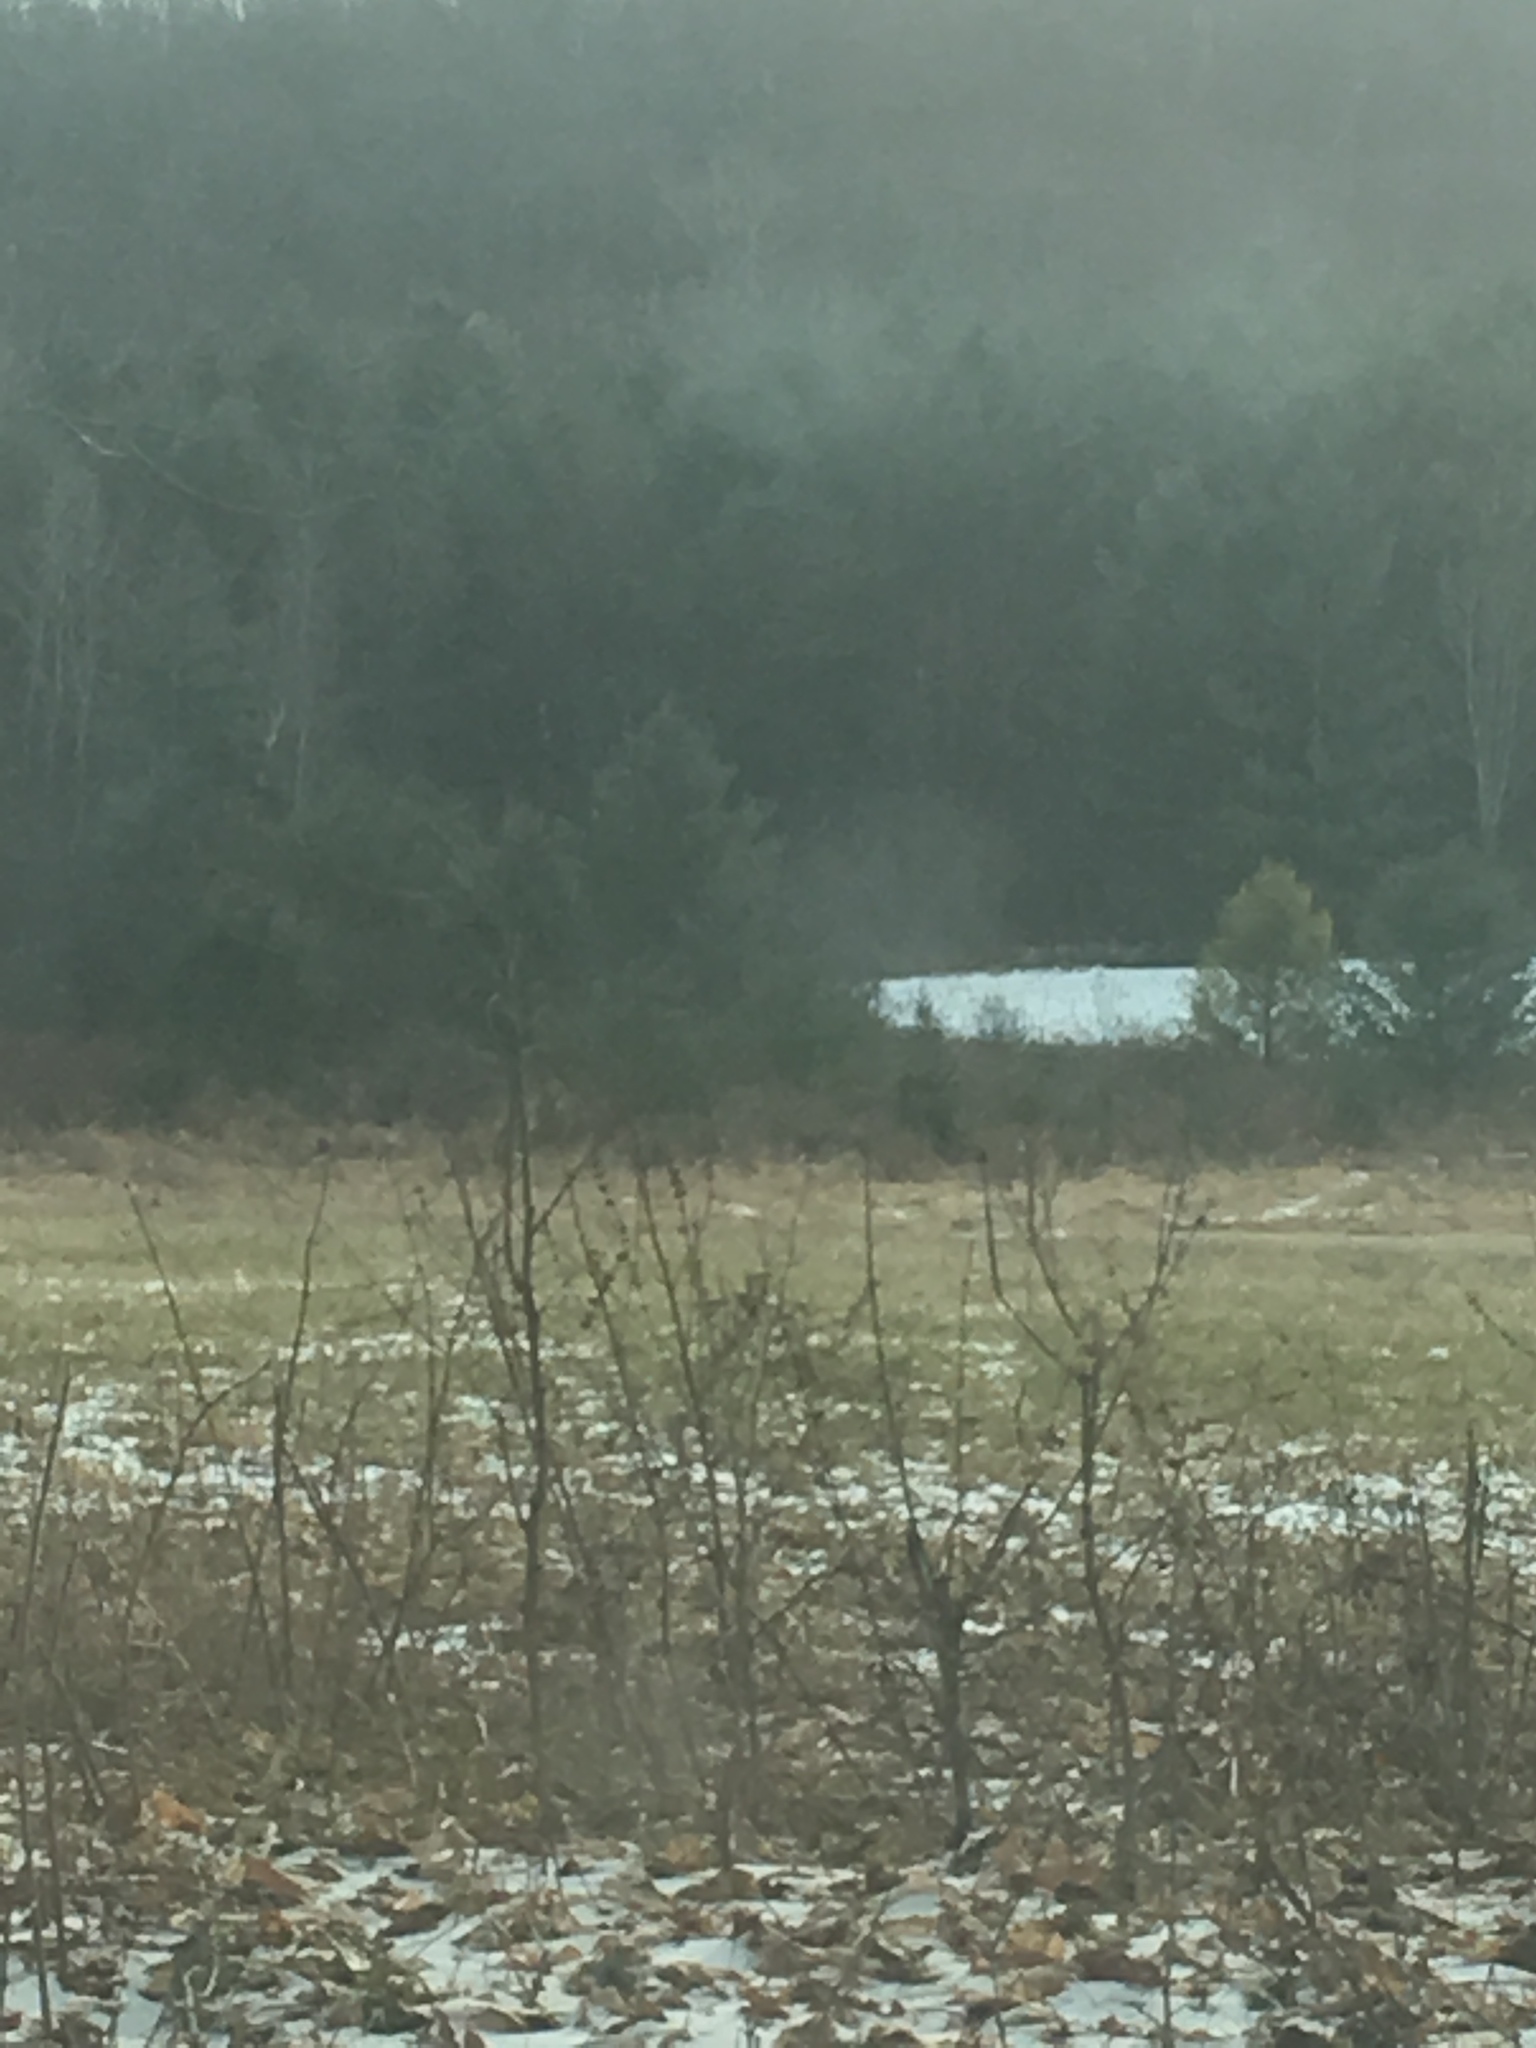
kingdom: Plantae
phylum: Tracheophyta
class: Pinopsida
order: Pinales
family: Pinaceae
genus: Pinus
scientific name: Pinus strobus
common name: Weymouth pine
